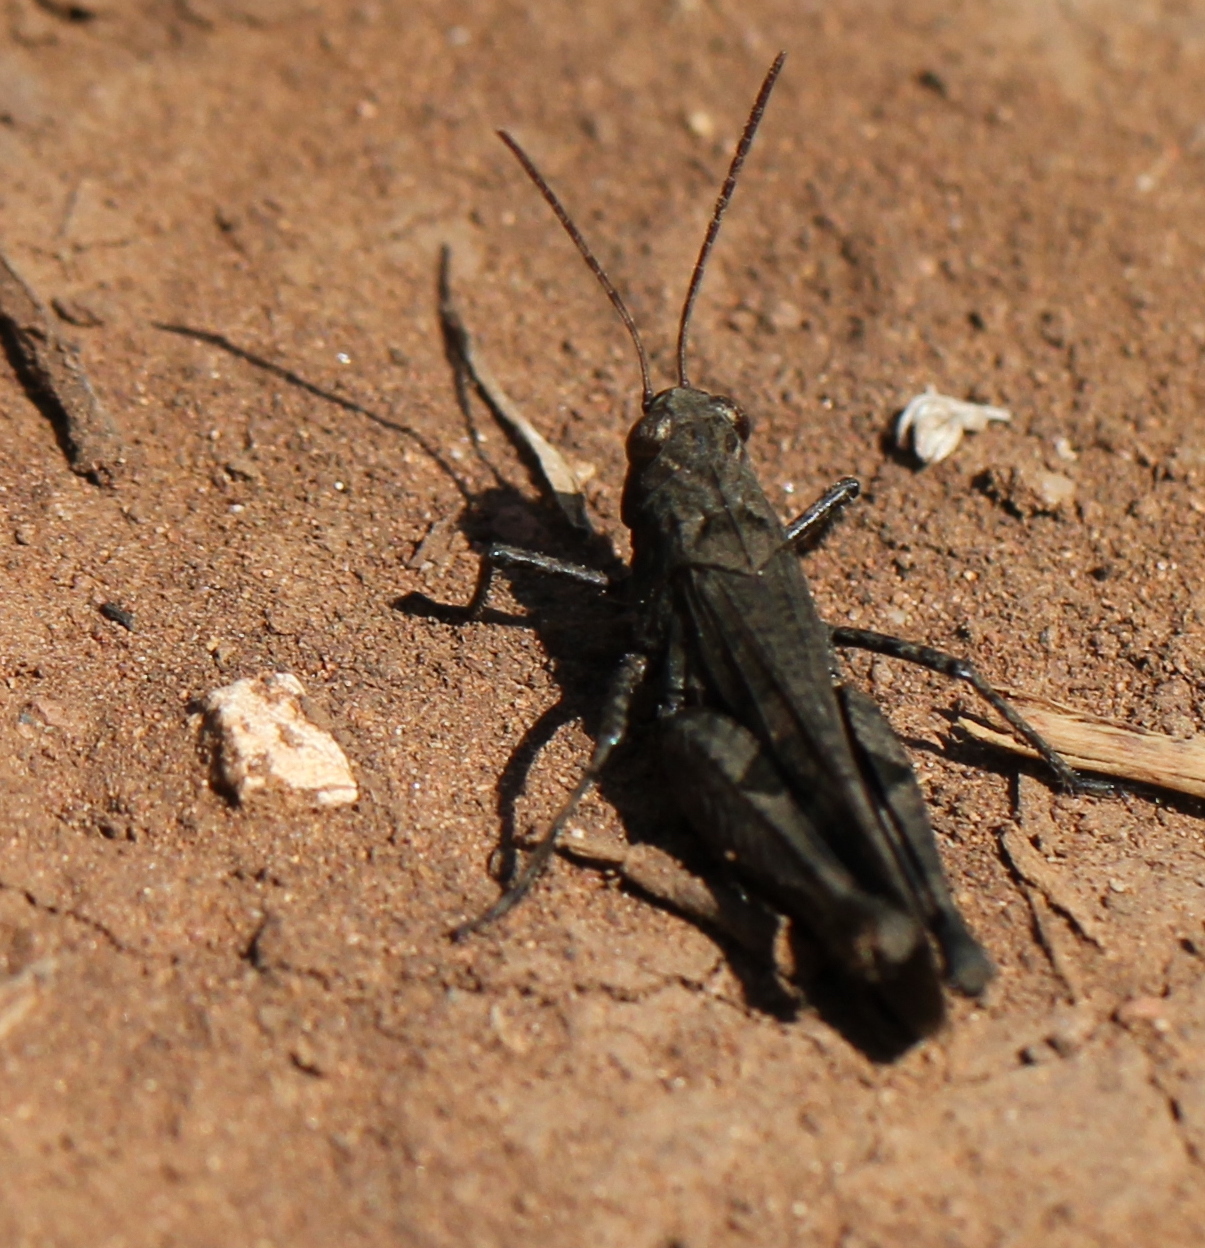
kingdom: Animalia
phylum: Arthropoda
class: Insecta
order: Orthoptera
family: Acrididae
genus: Celes
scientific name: Celes variabilis
